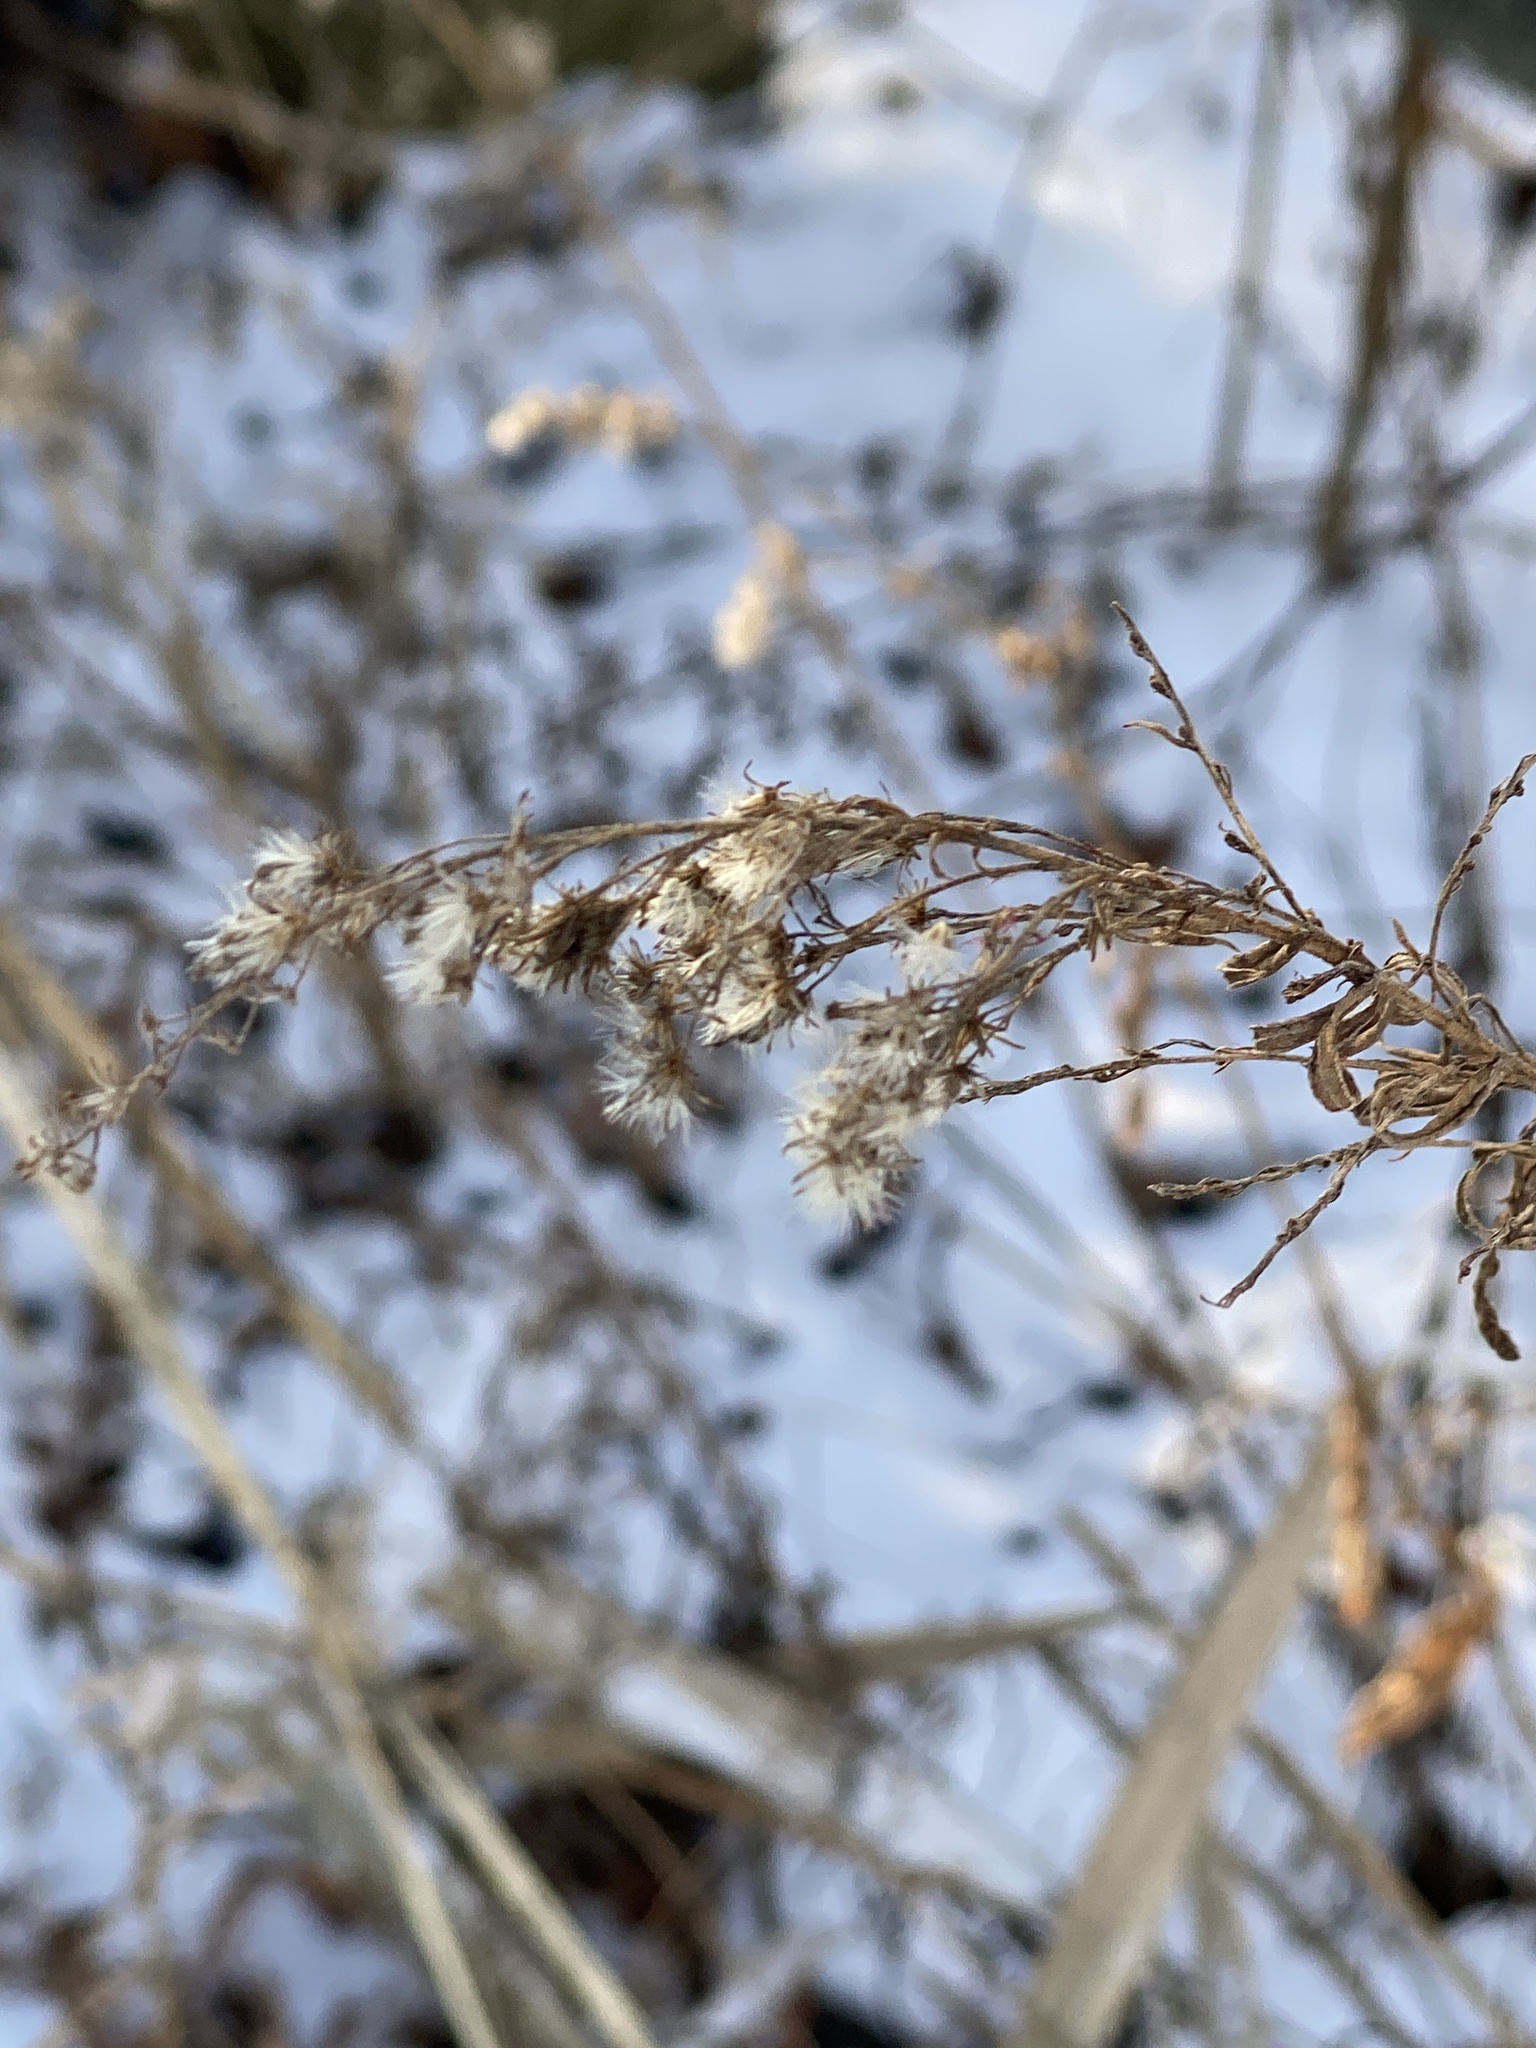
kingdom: Plantae
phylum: Tracheophyta
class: Magnoliopsida
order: Asterales
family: Asteraceae
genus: Solidago
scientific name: Solidago altissima
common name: Late goldenrod
